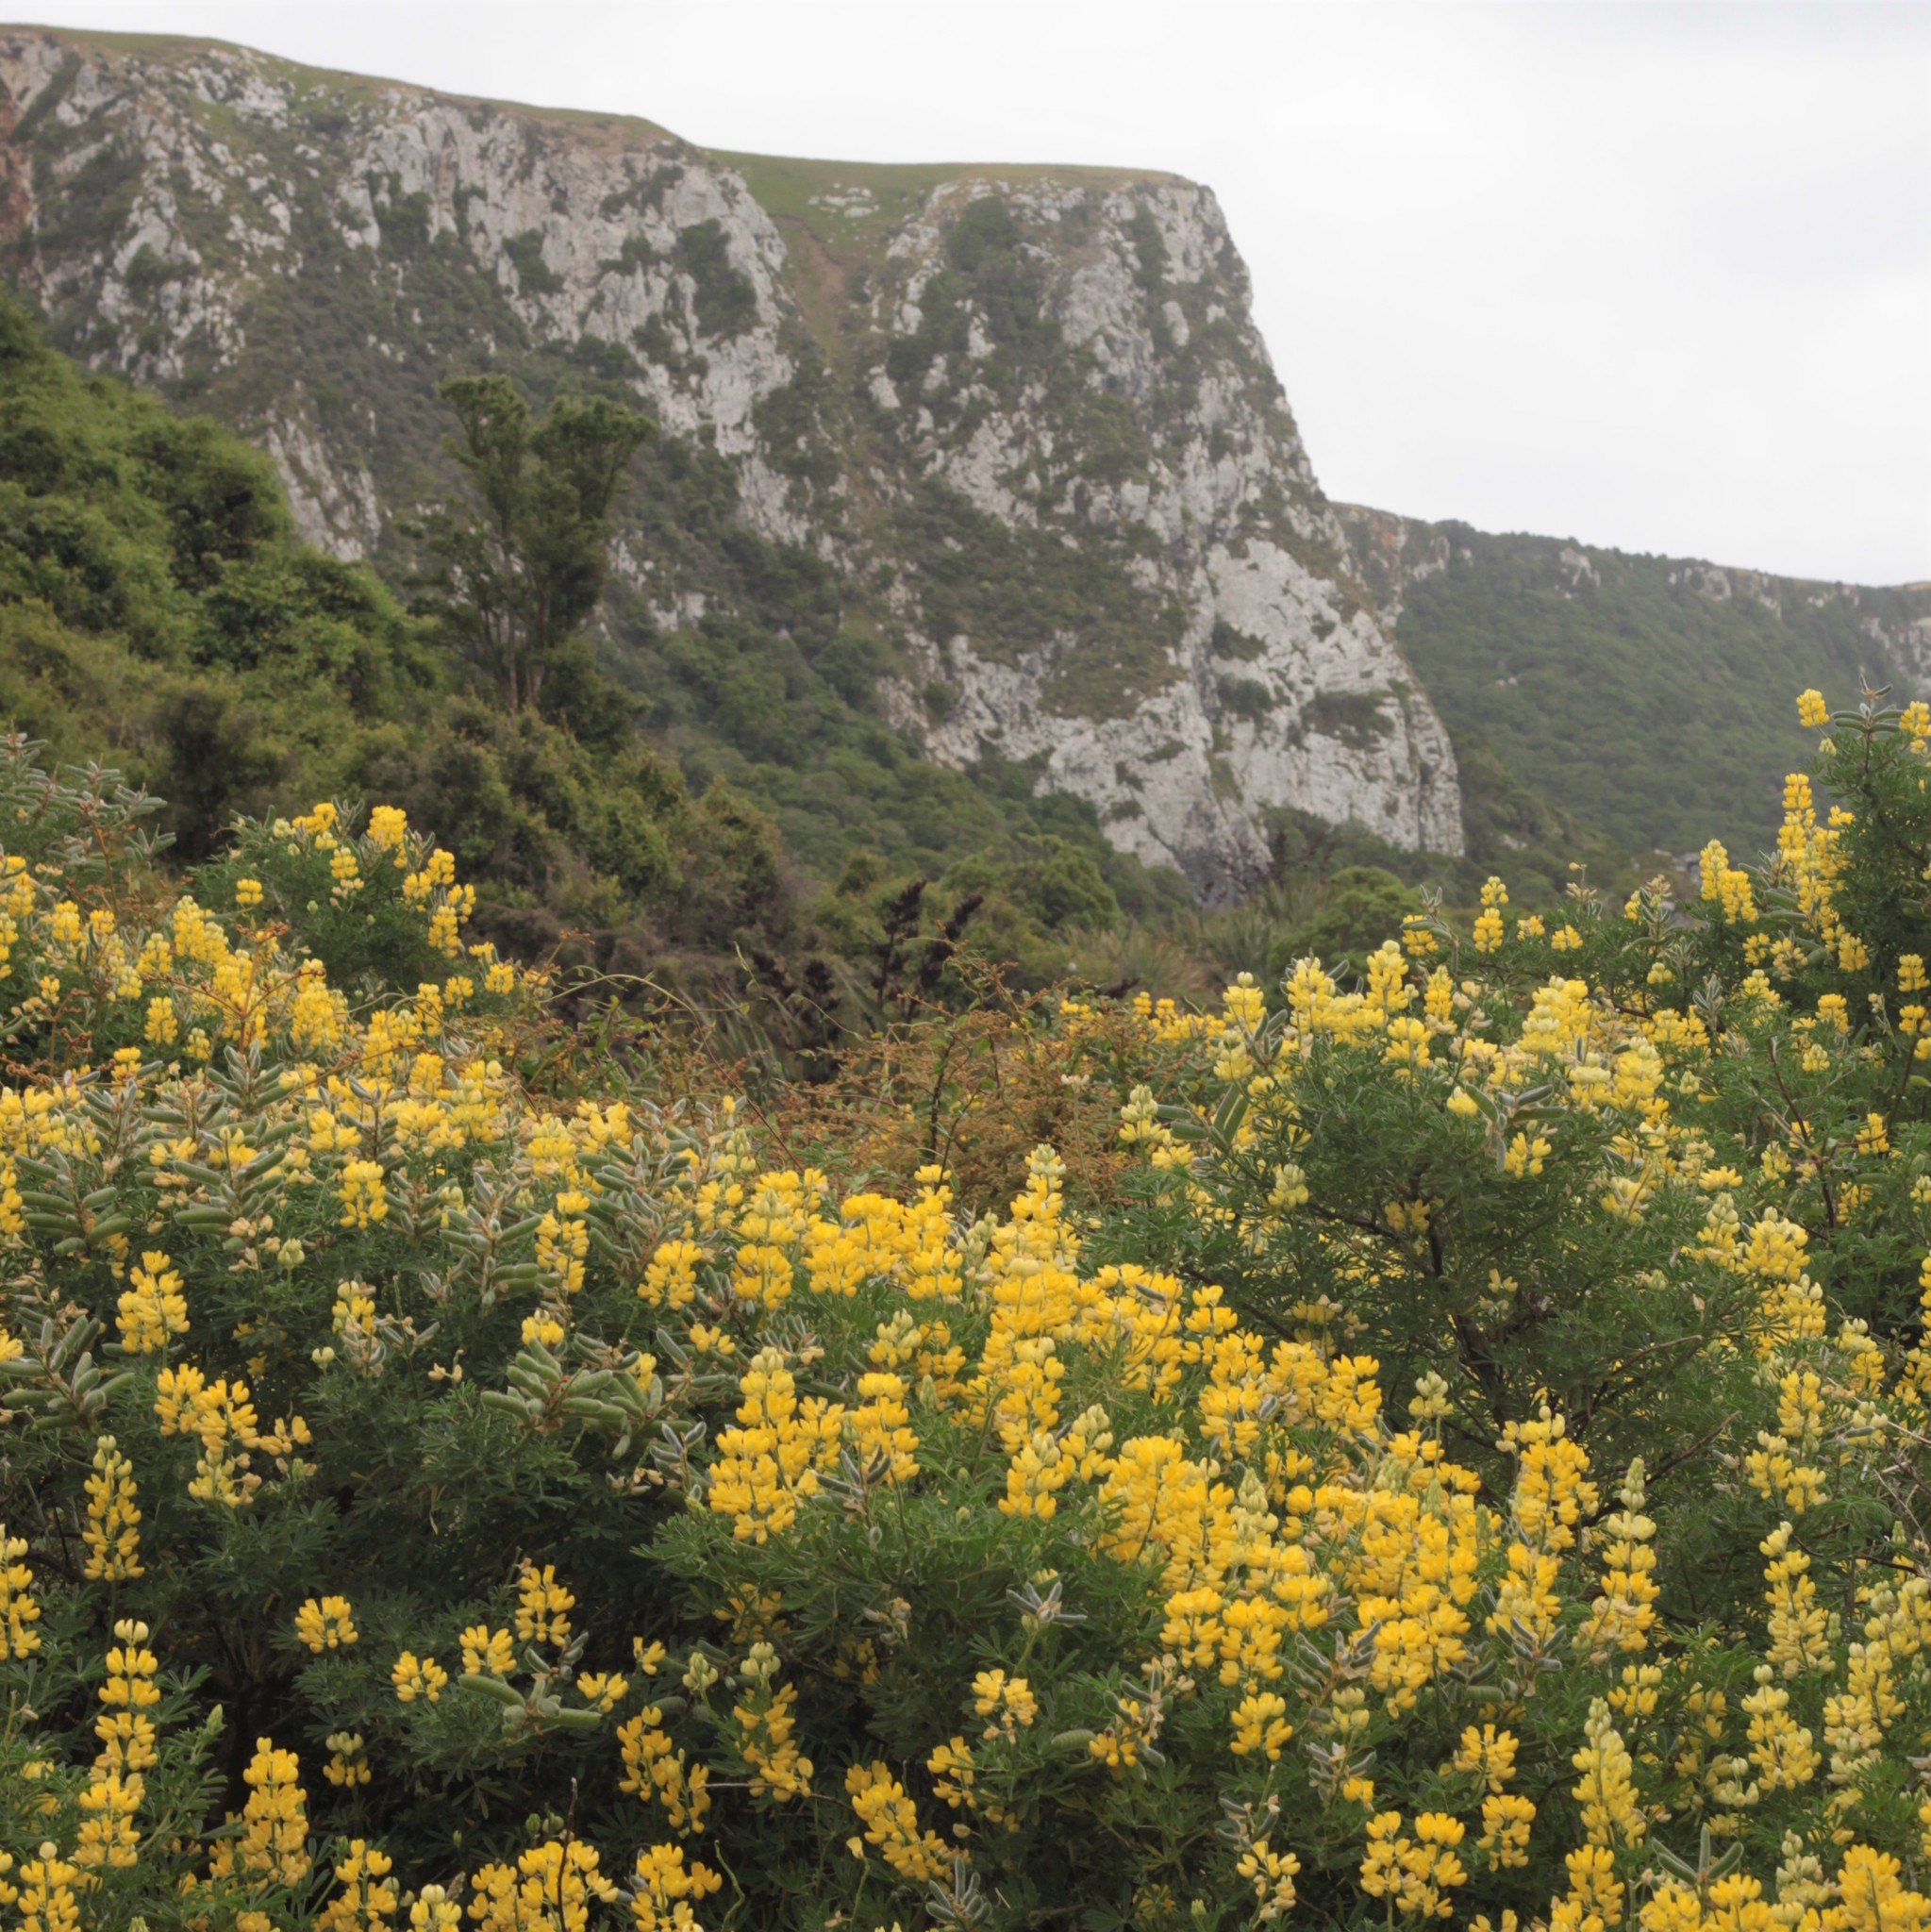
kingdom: Plantae
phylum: Tracheophyta
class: Magnoliopsida
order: Fabales
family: Fabaceae
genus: Lupinus
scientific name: Lupinus arboreus
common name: Yellow bush lupine
